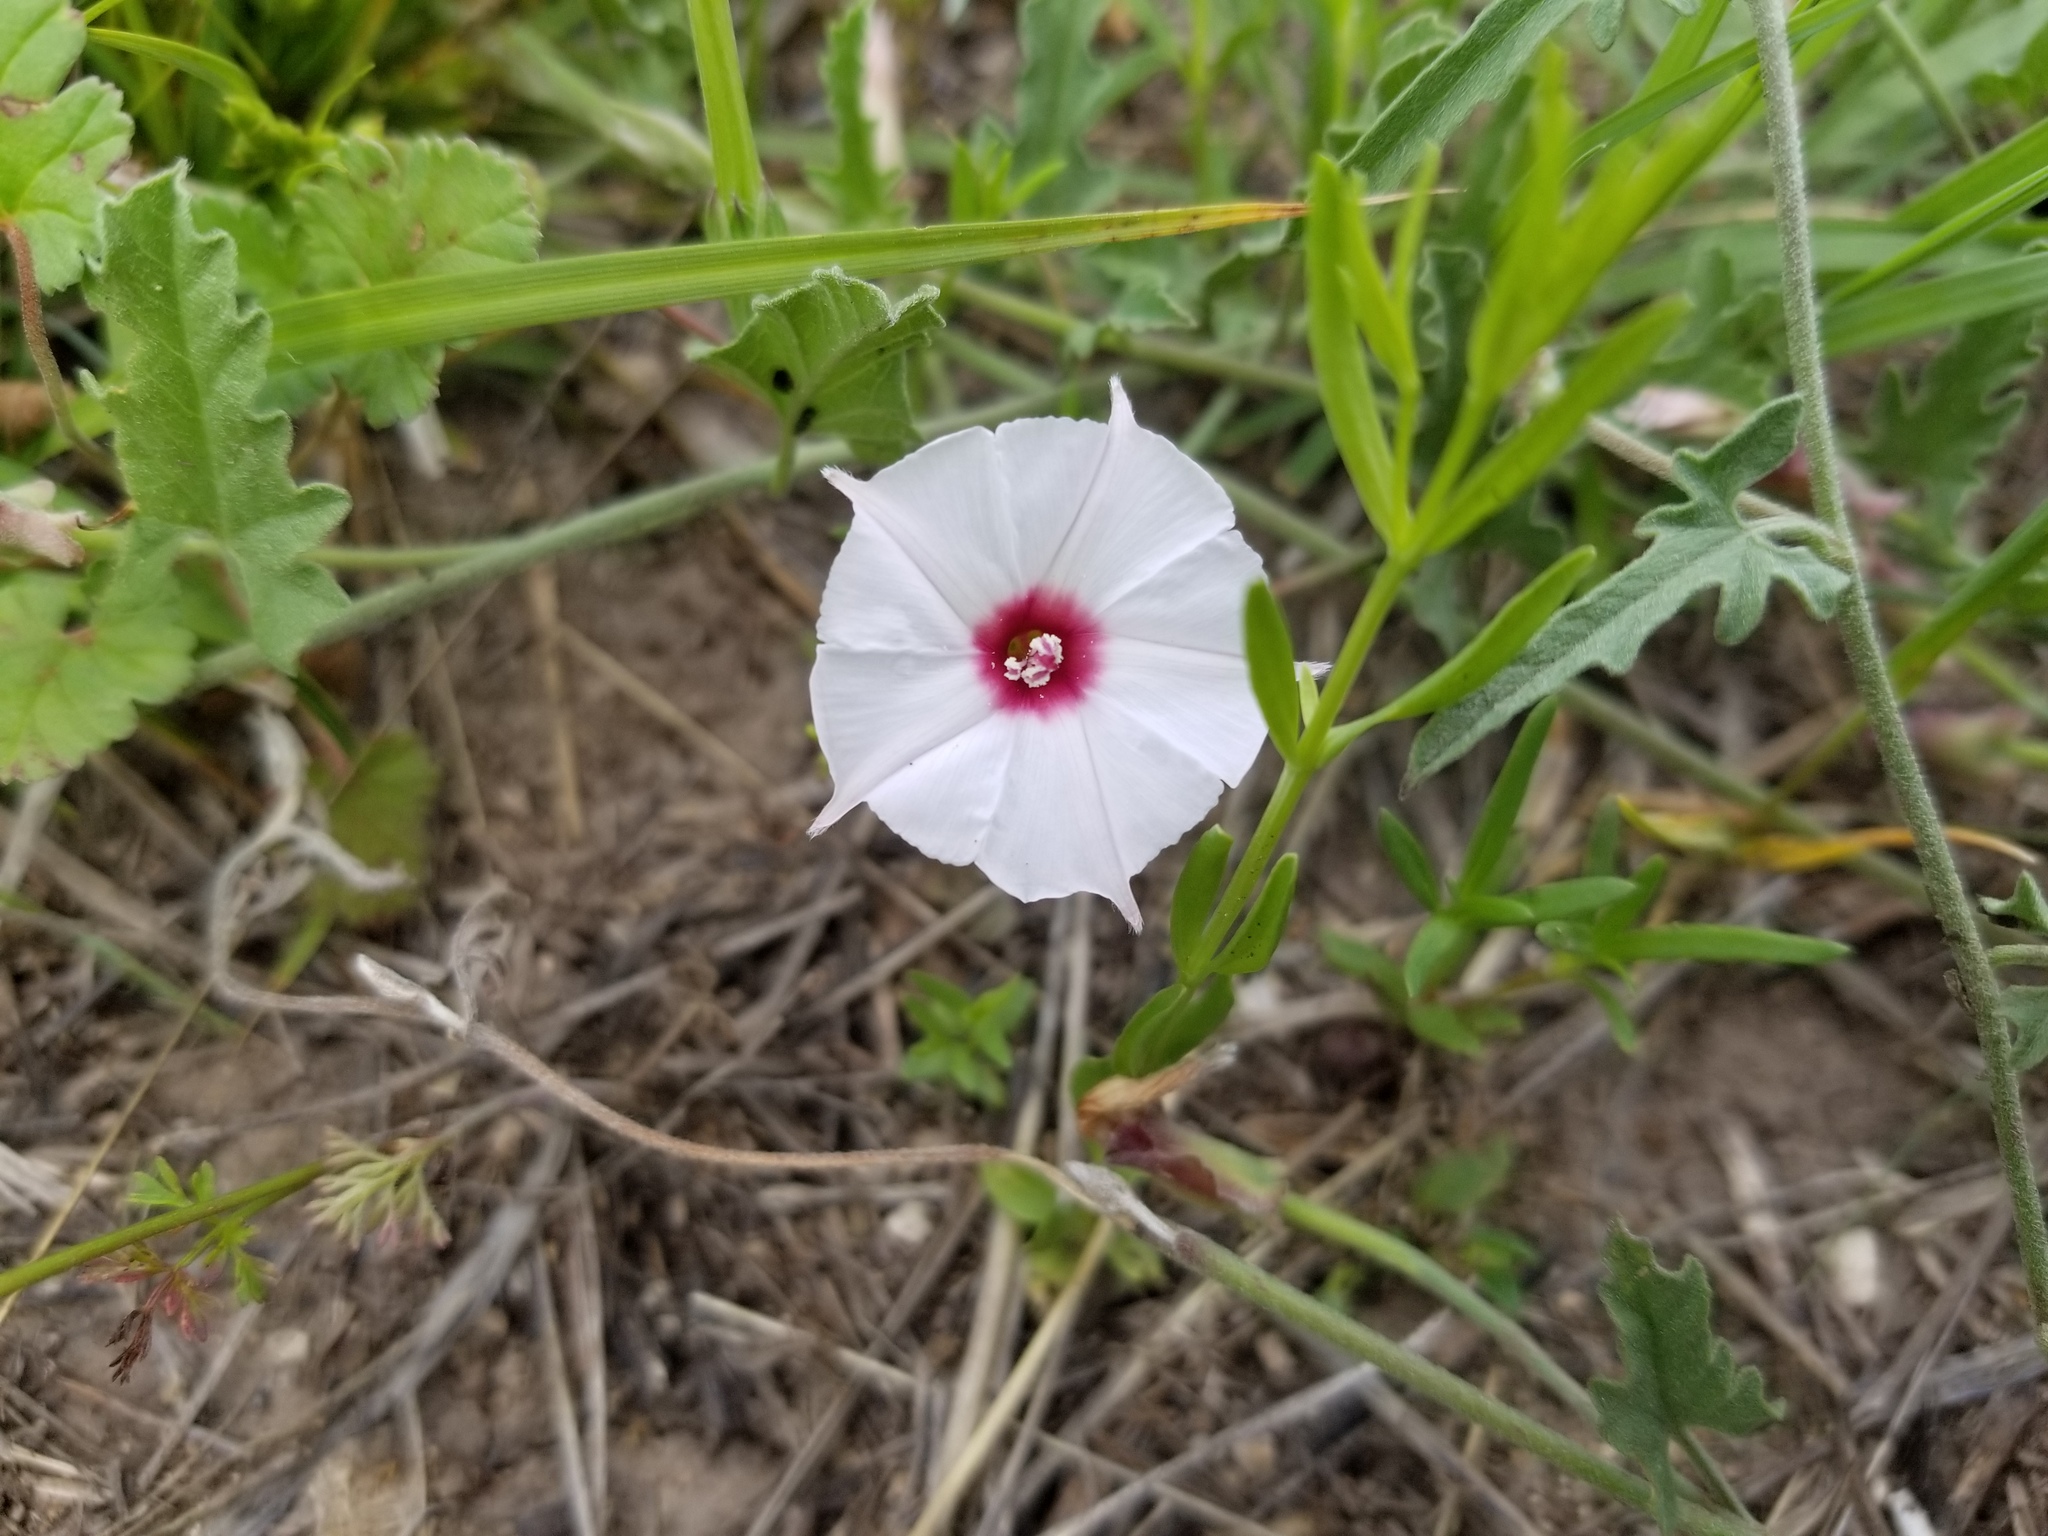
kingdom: Plantae
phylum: Tracheophyta
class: Magnoliopsida
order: Solanales
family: Convolvulaceae
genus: Convolvulus
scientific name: Convolvulus equitans
